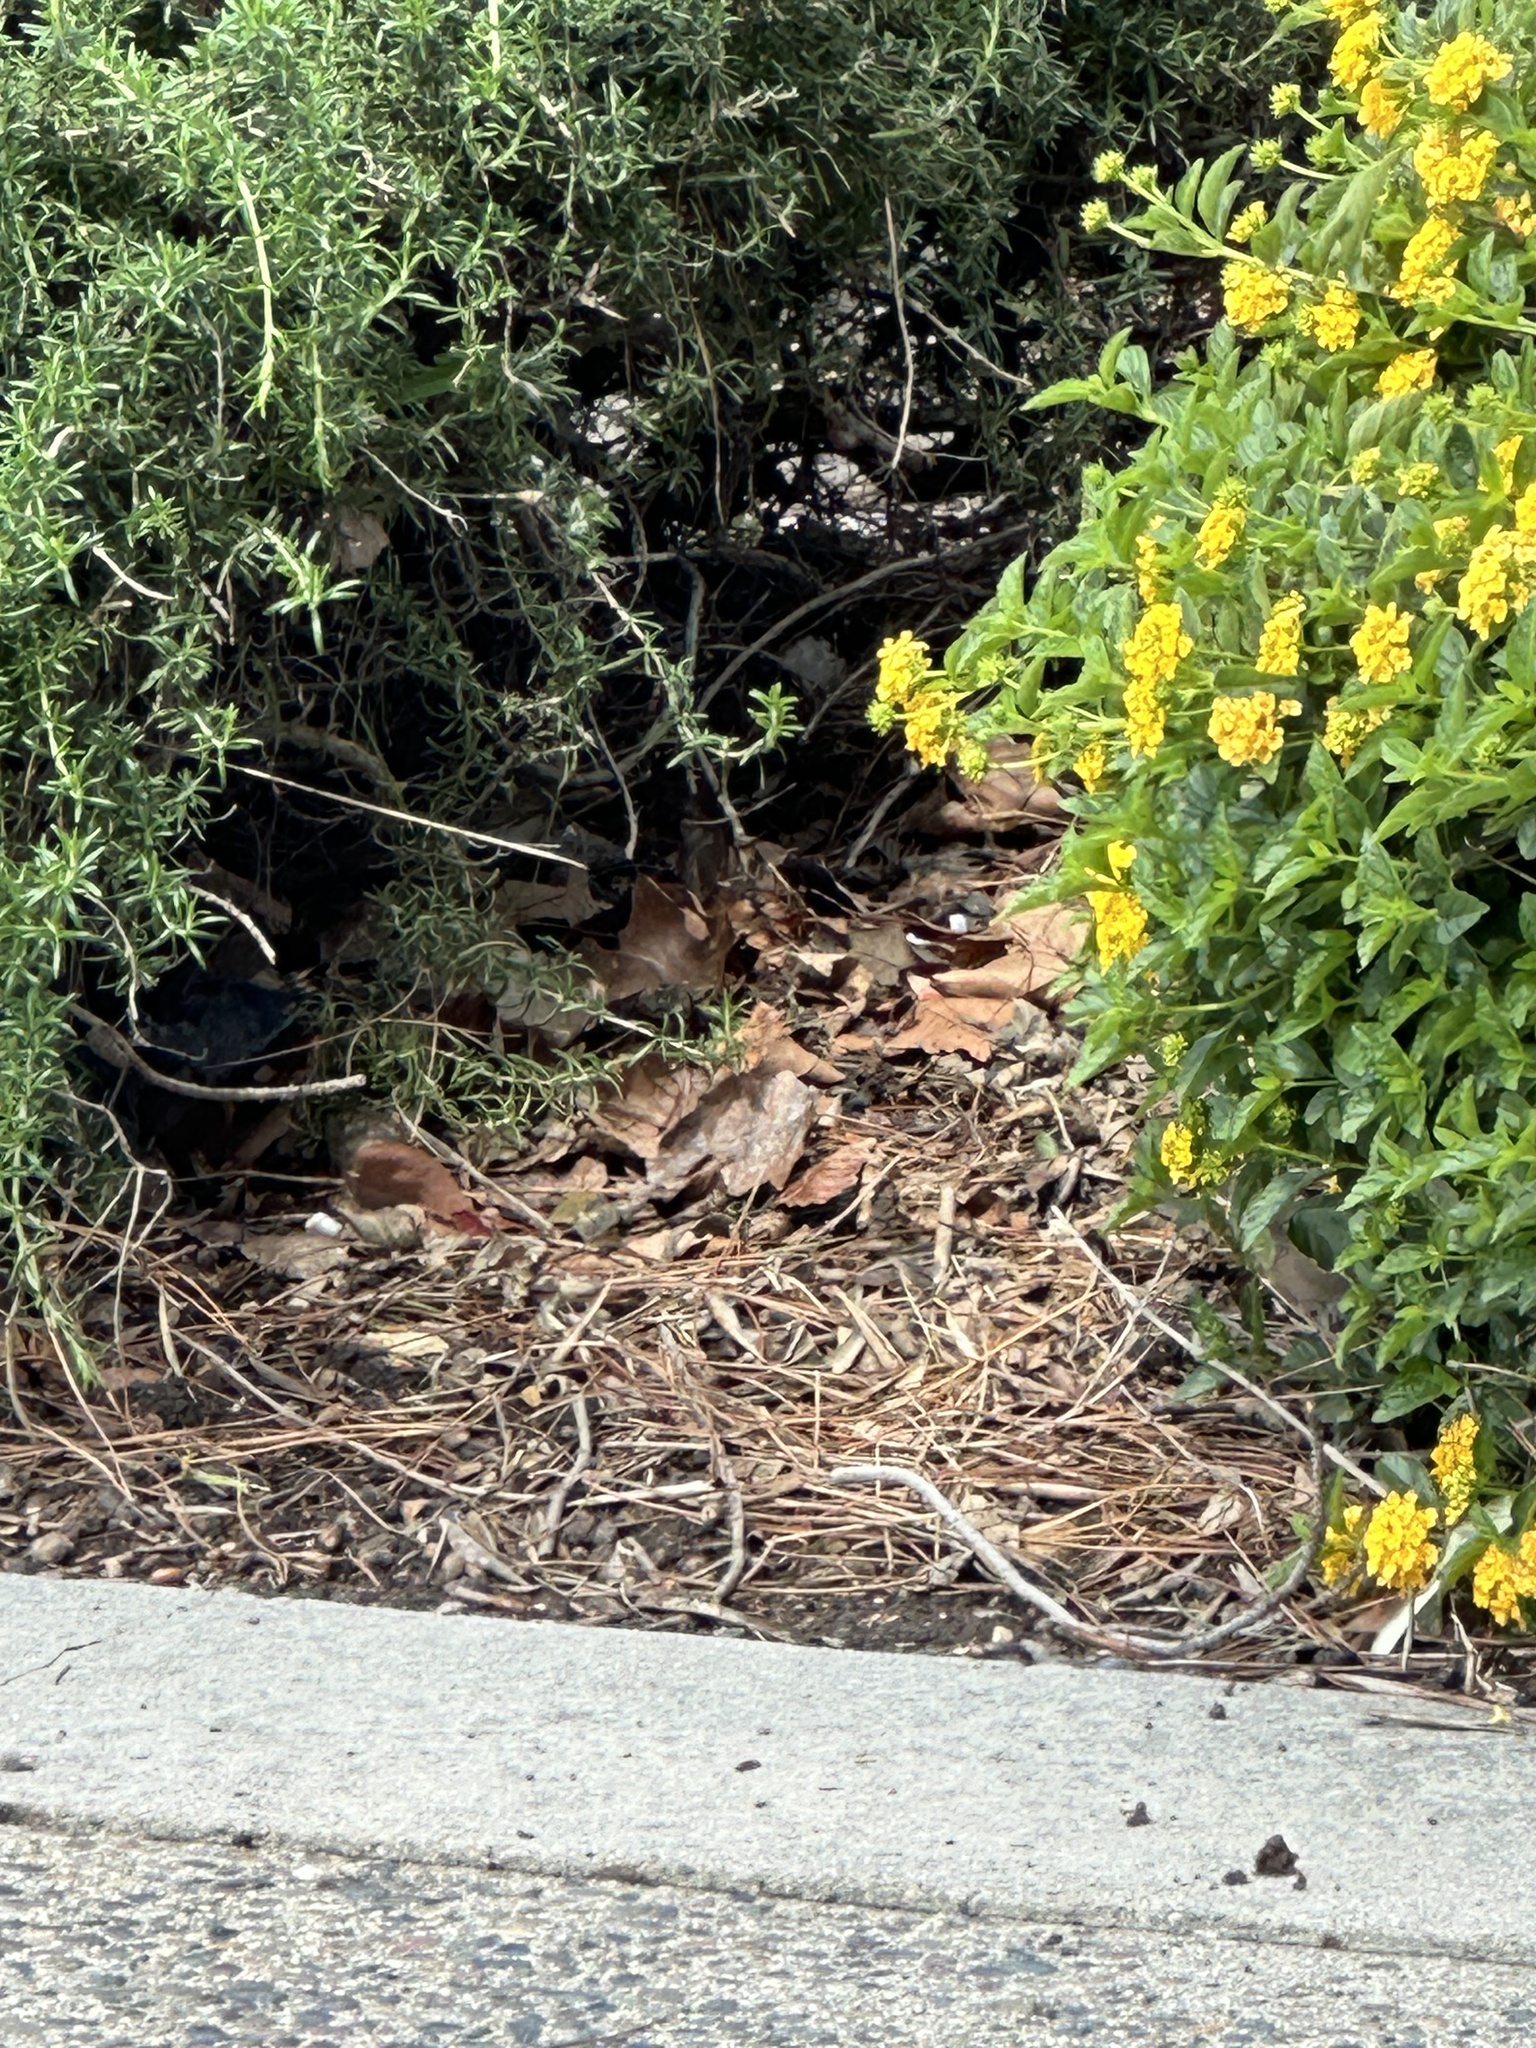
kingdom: Animalia
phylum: Chordata
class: Aves
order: Passeriformes
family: Passerellidae
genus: Zonotrichia
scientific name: Zonotrichia leucophrys
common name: White-crowned sparrow
